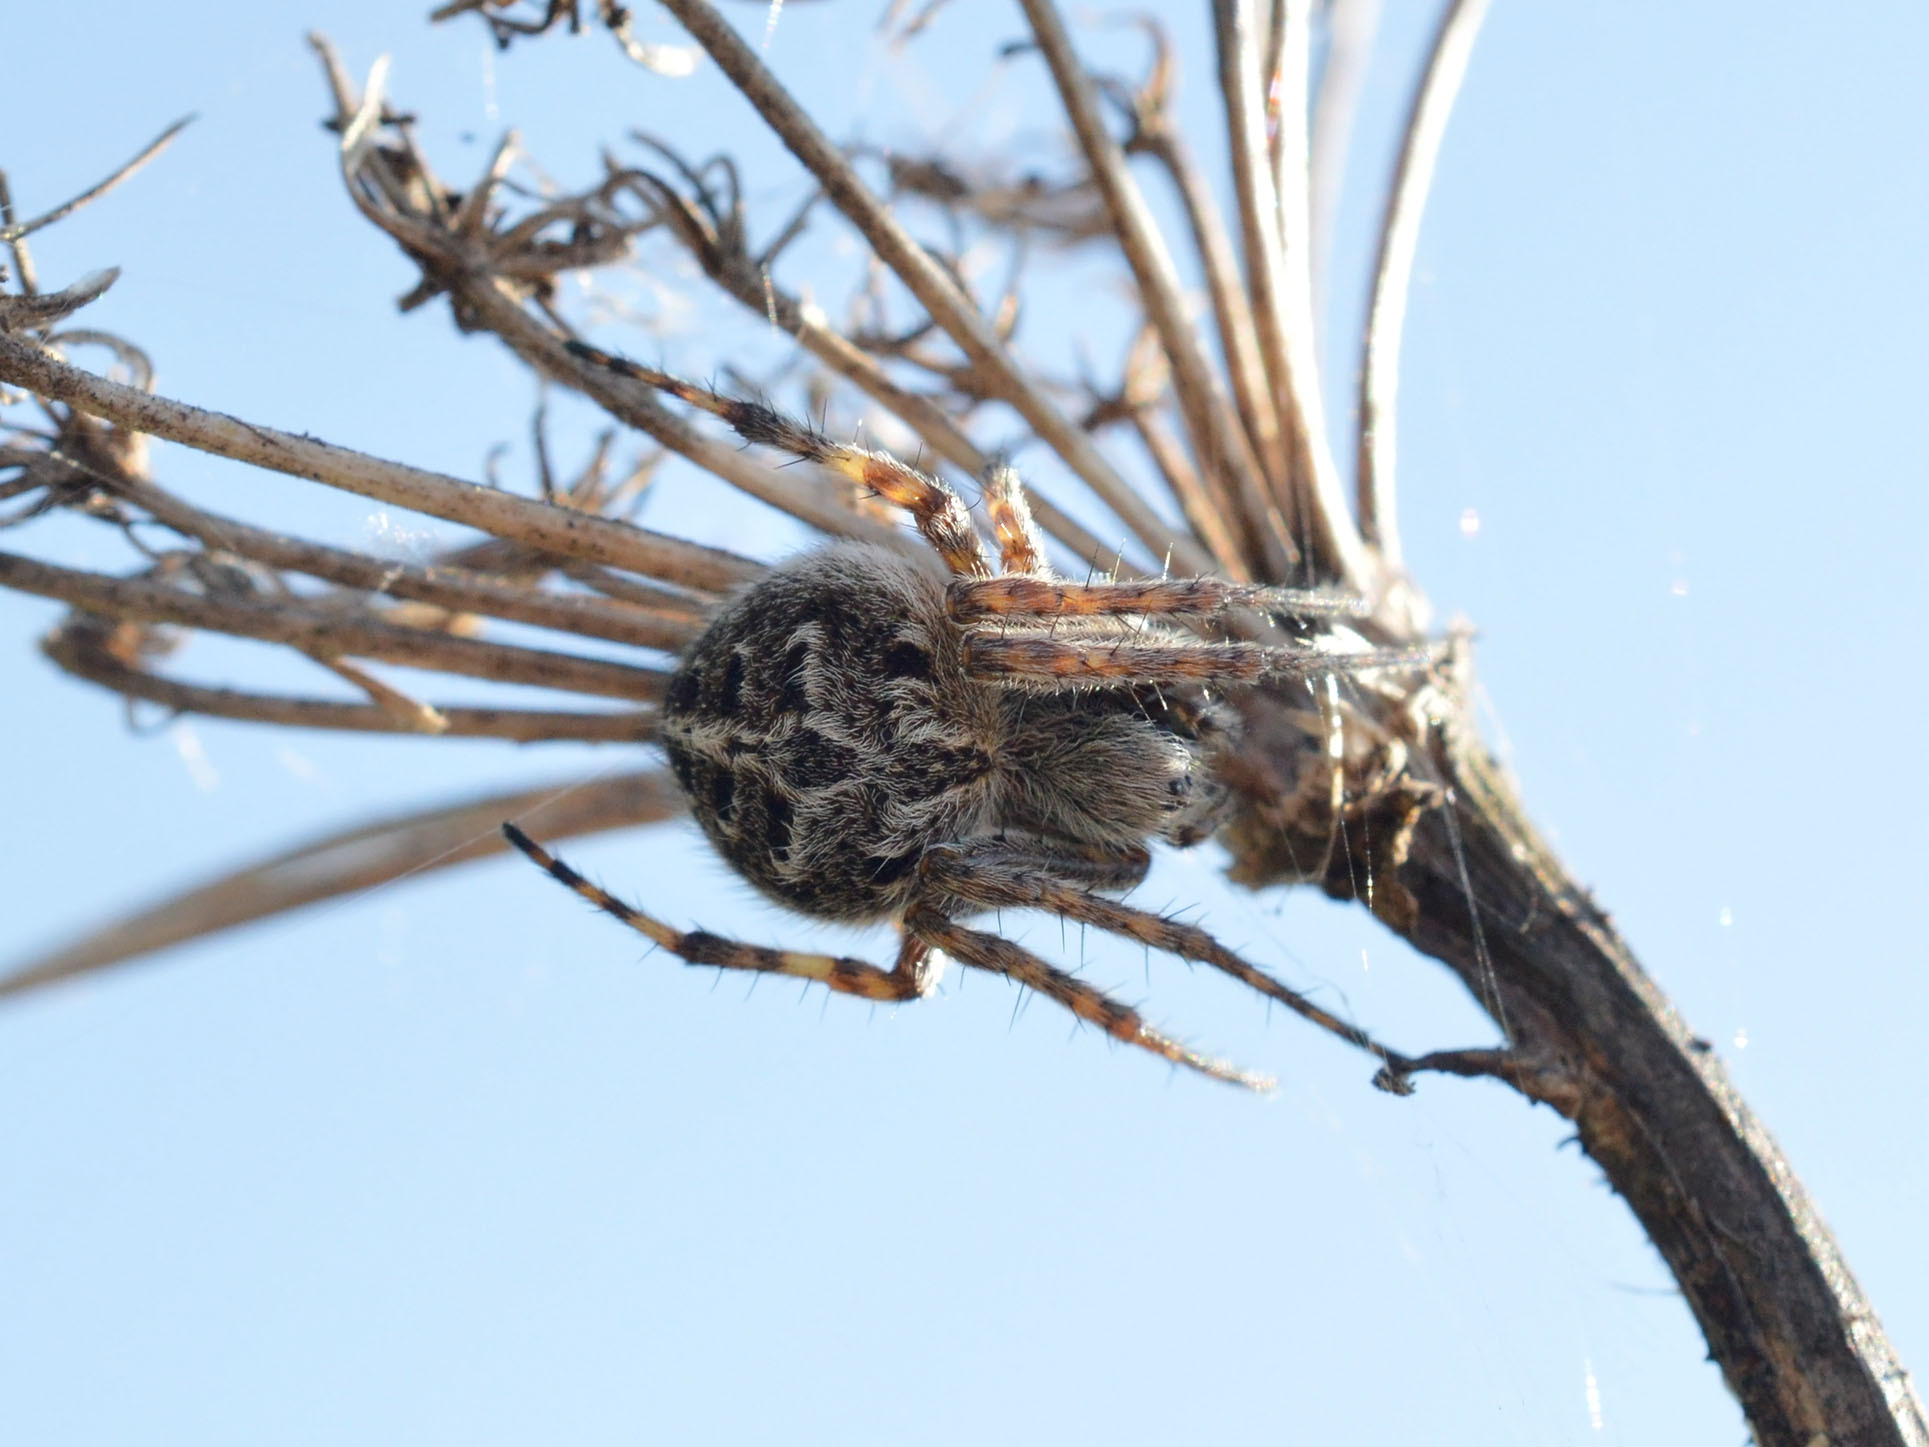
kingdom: Animalia
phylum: Arthropoda
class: Arachnida
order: Araneae
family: Araneidae
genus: Agalenatea
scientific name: Agalenatea redii
